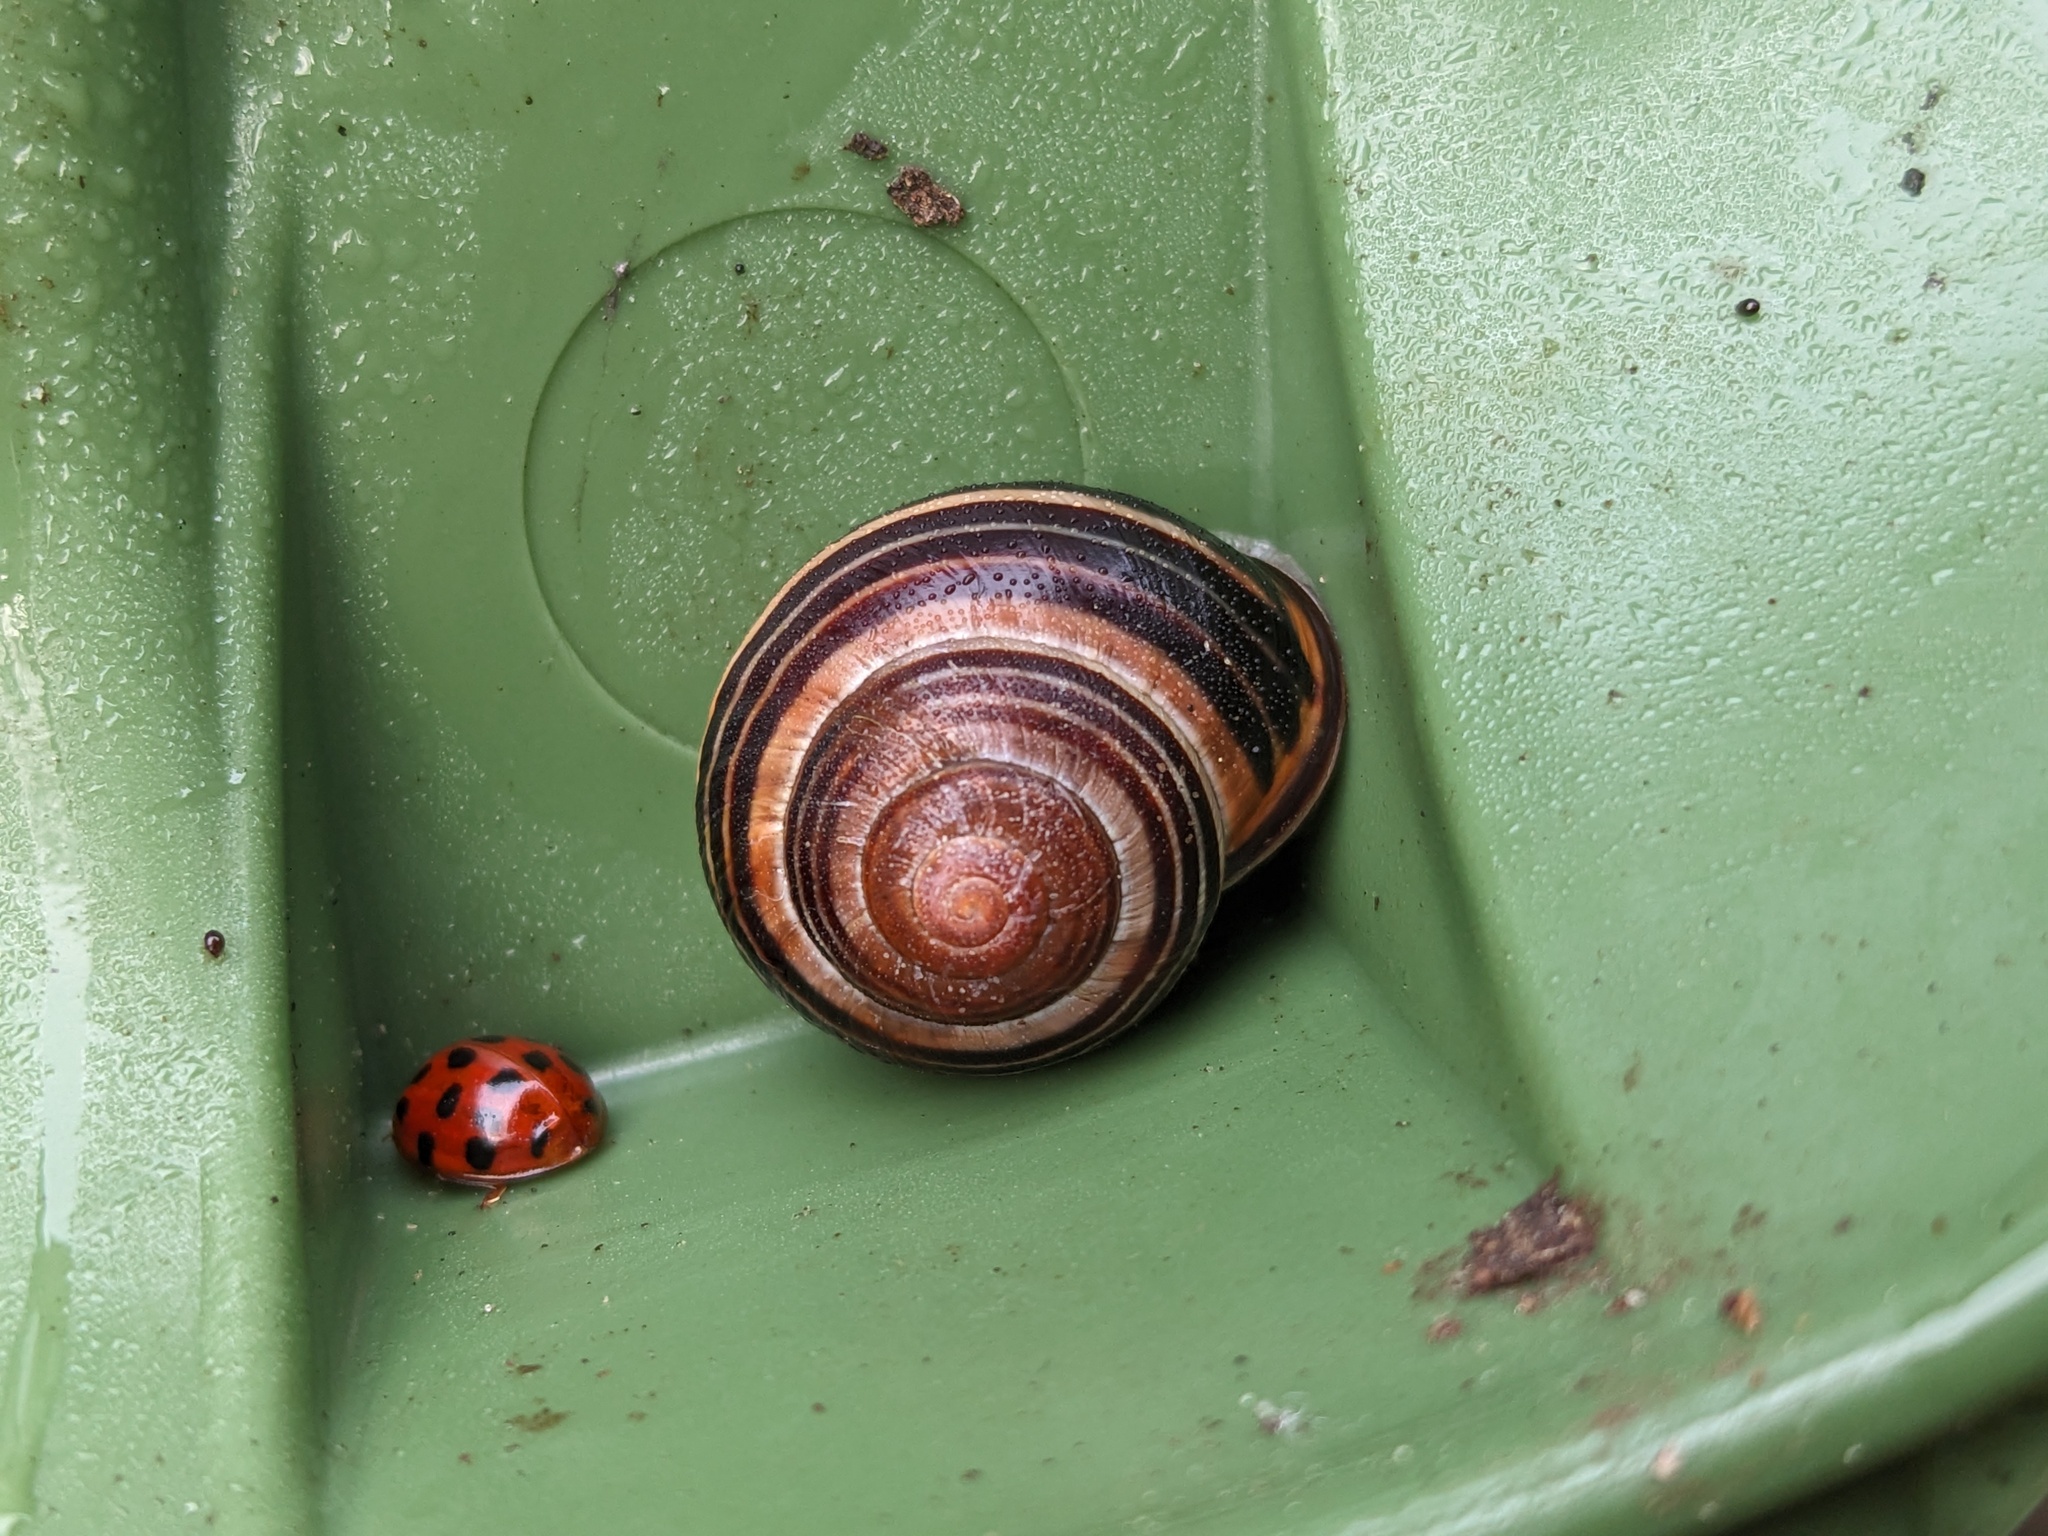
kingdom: Animalia
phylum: Mollusca
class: Gastropoda
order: Stylommatophora
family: Helicidae
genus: Cepaea
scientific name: Cepaea nemoralis
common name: Grovesnail
